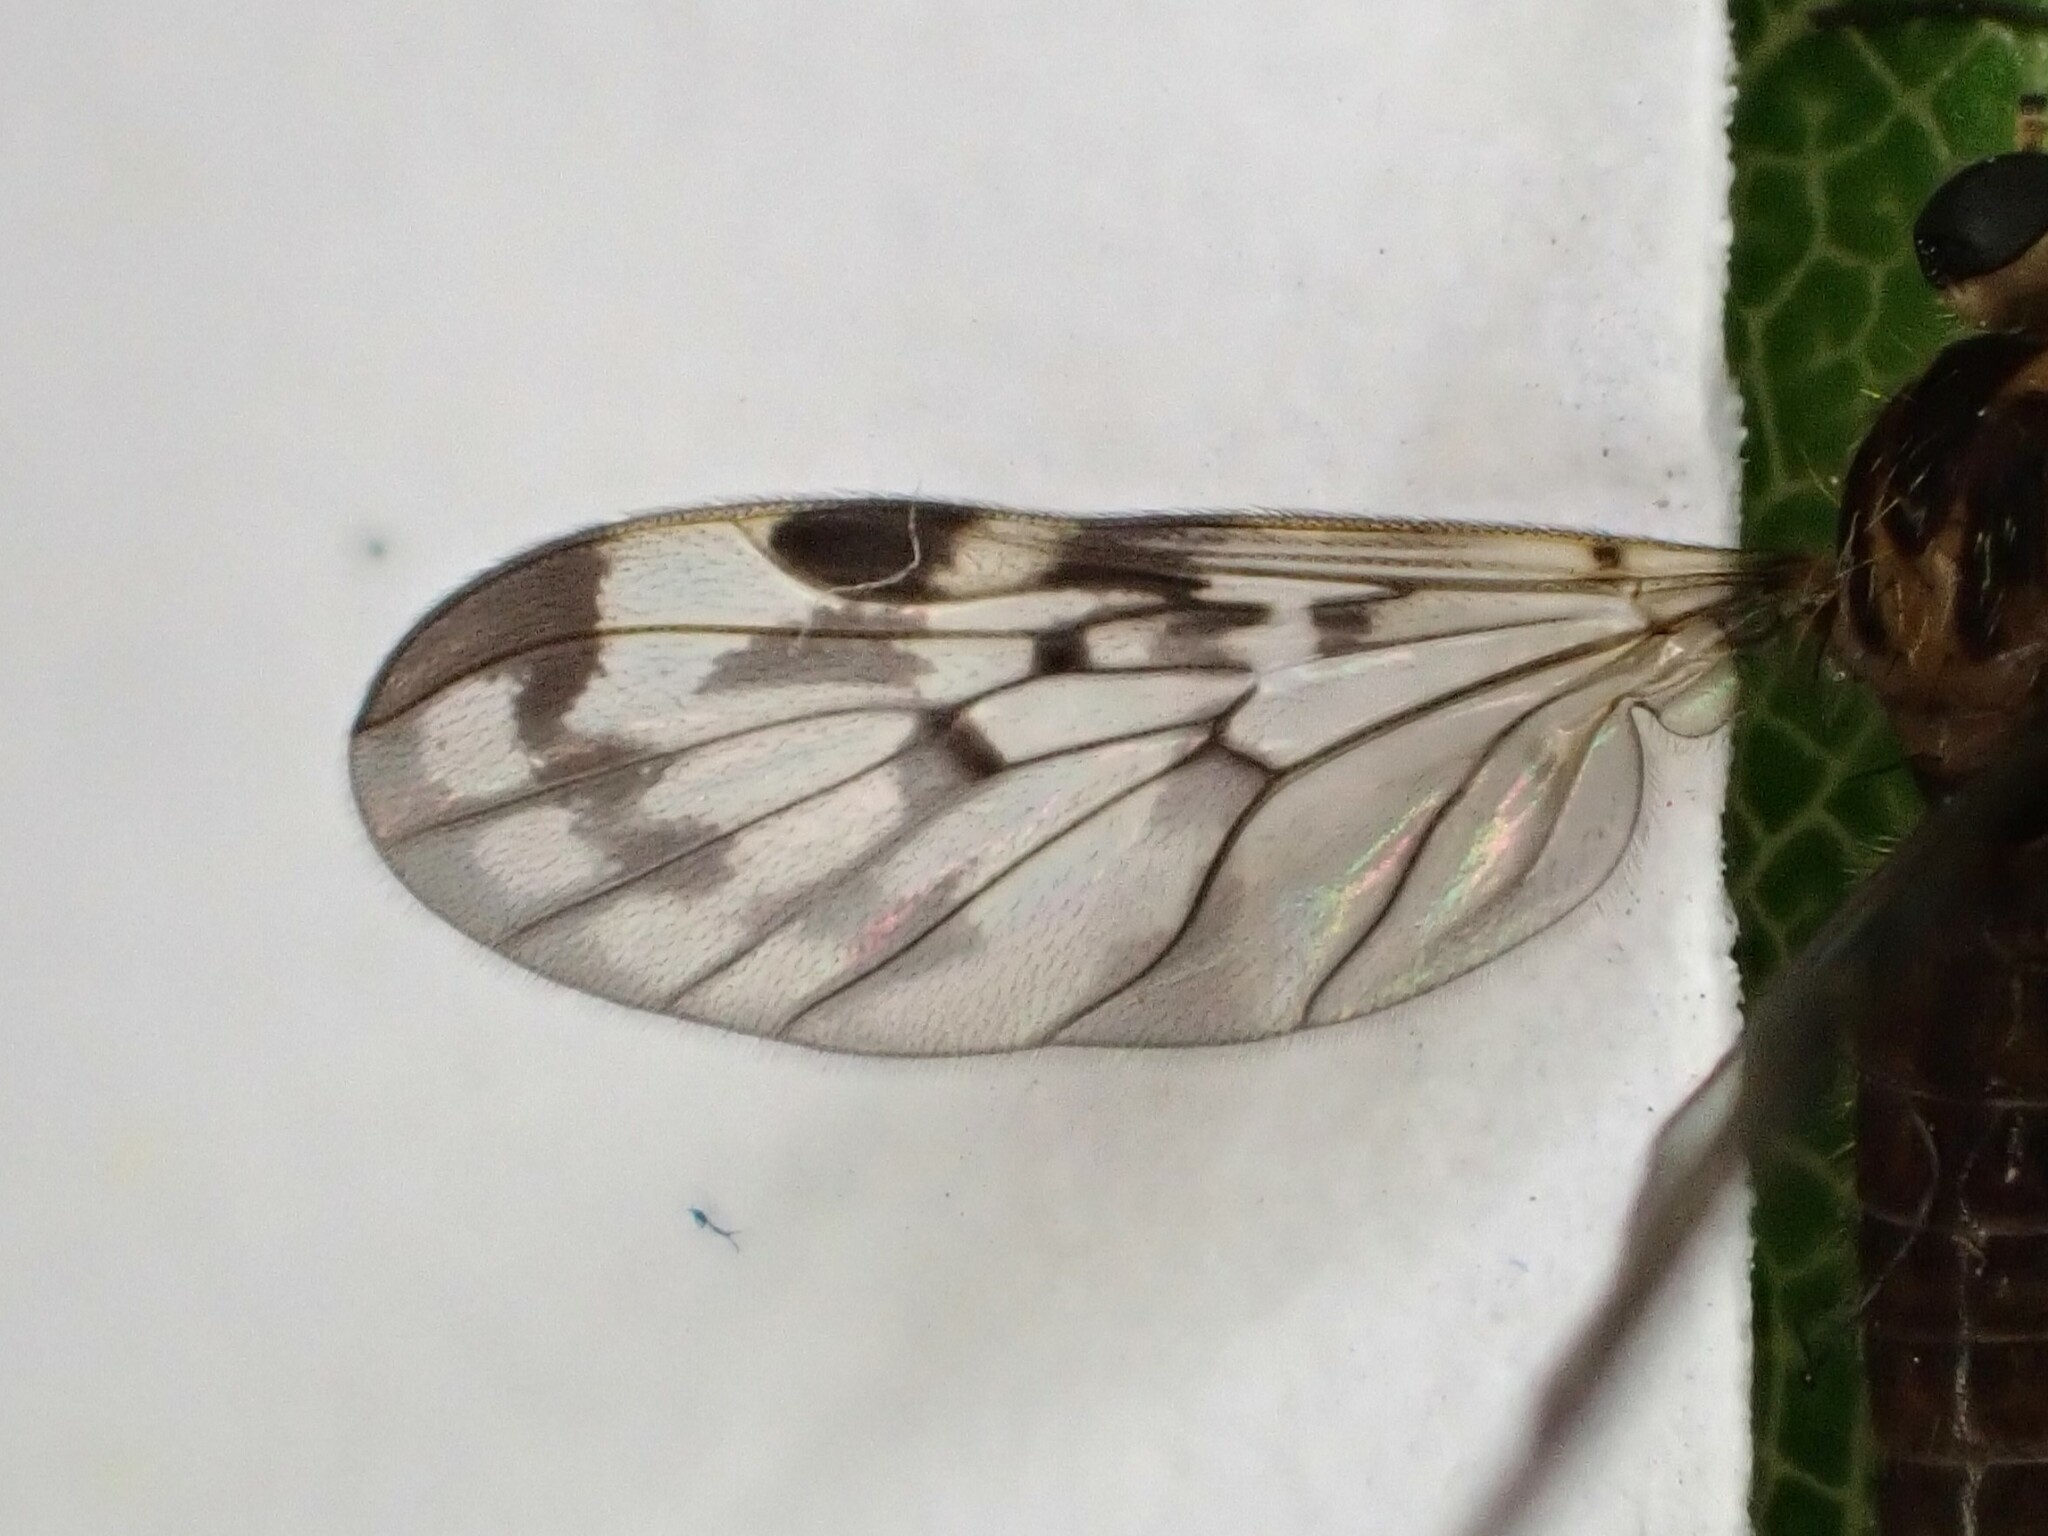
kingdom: Animalia
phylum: Arthropoda
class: Insecta
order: Diptera
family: Anisopodidae
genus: Sylvicola
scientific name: Sylvicola dubius
